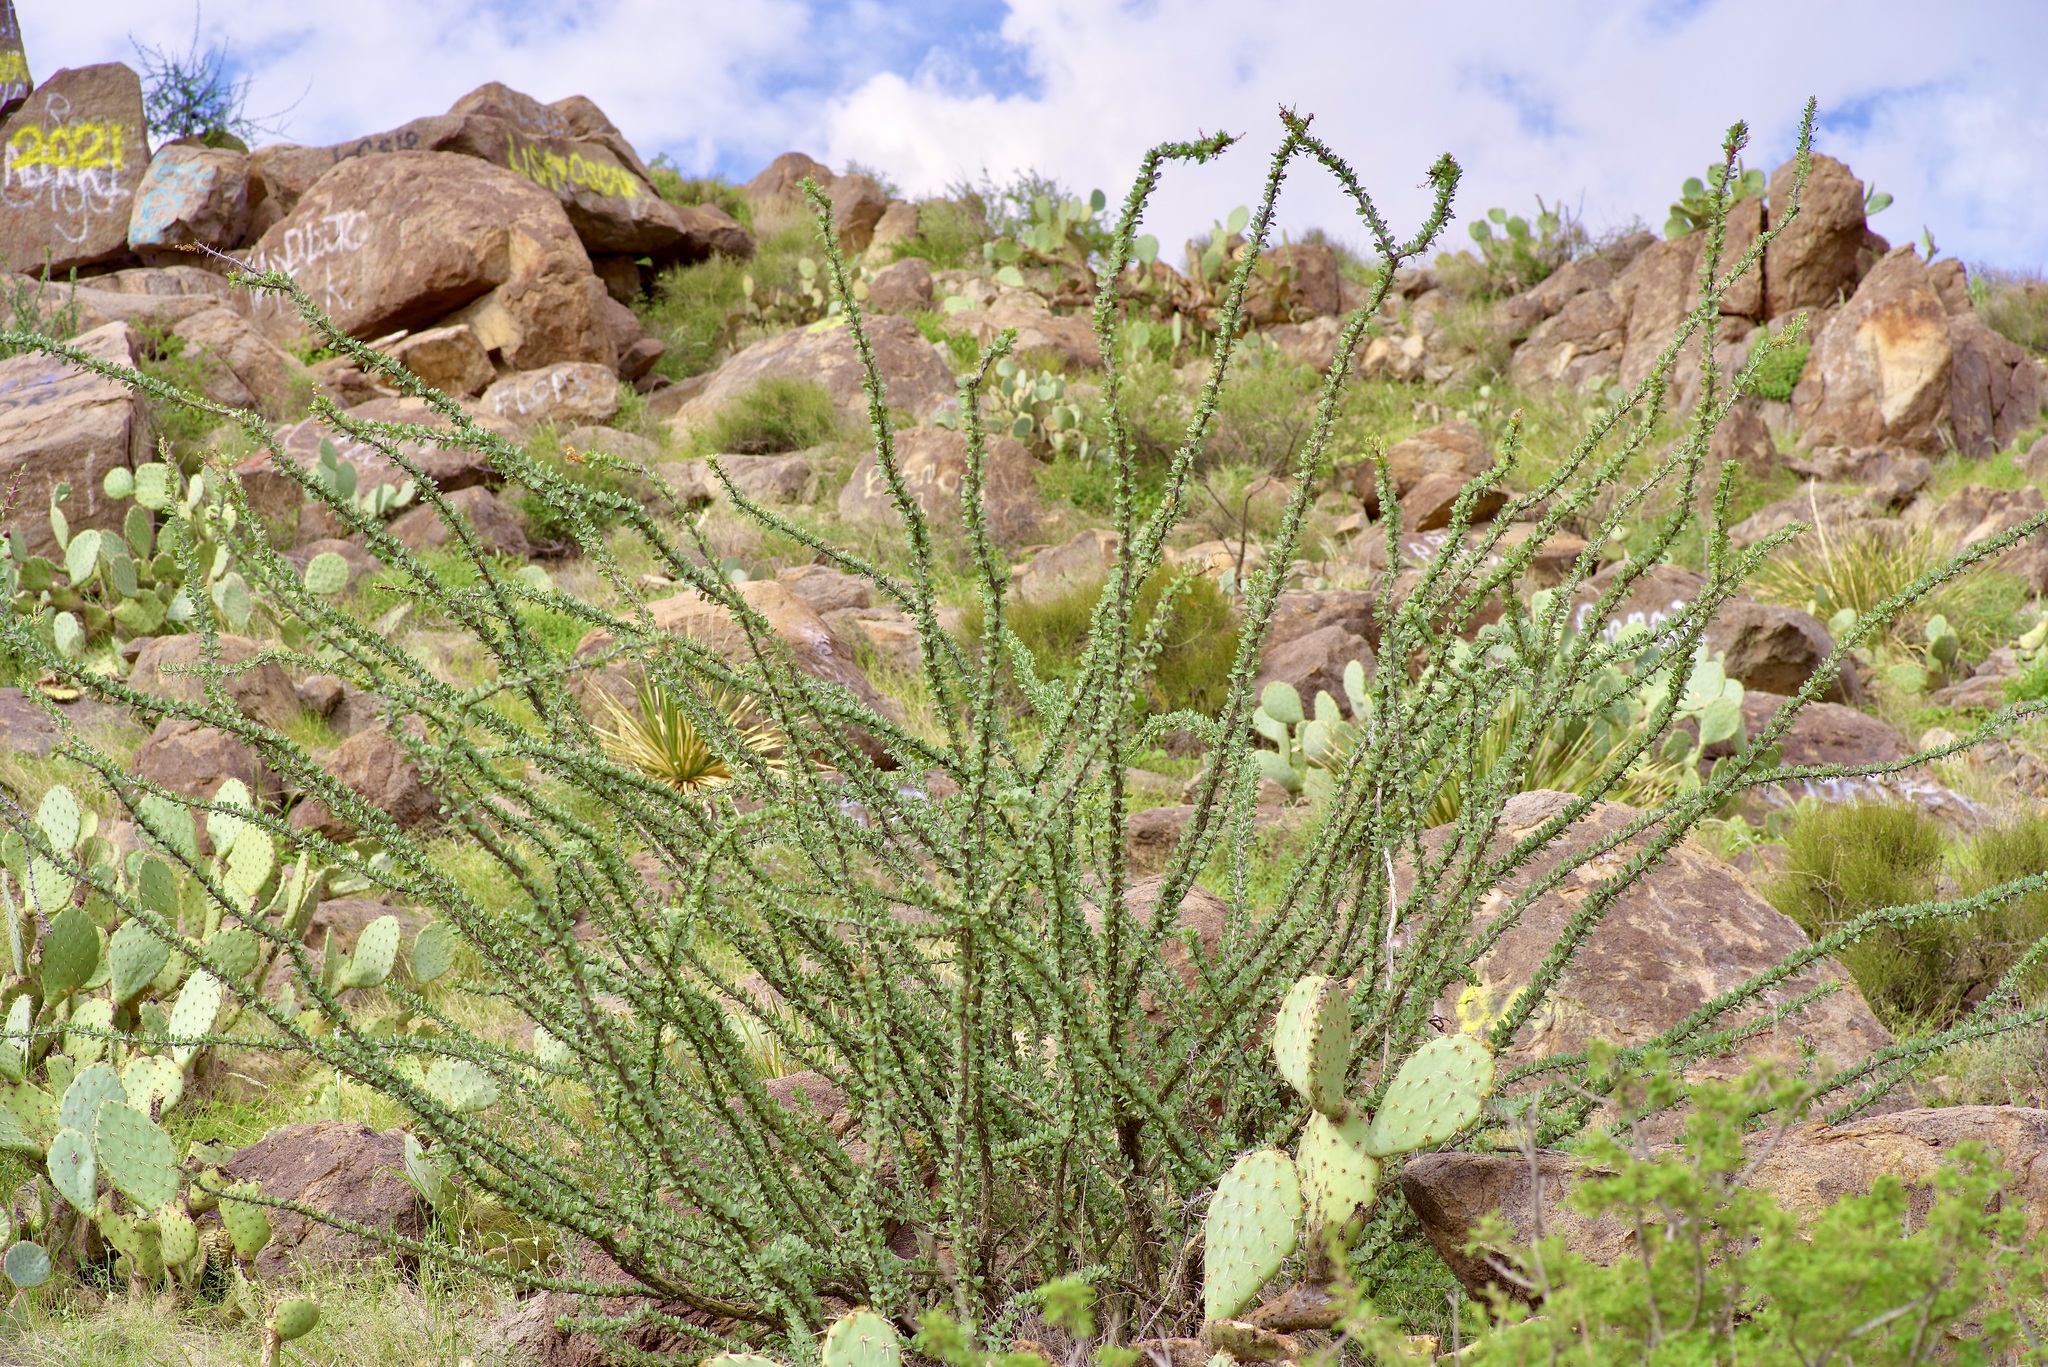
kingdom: Plantae
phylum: Tracheophyta
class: Magnoliopsida
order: Ericales
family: Fouquieriaceae
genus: Fouquieria
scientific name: Fouquieria splendens
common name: Vine-cactus
